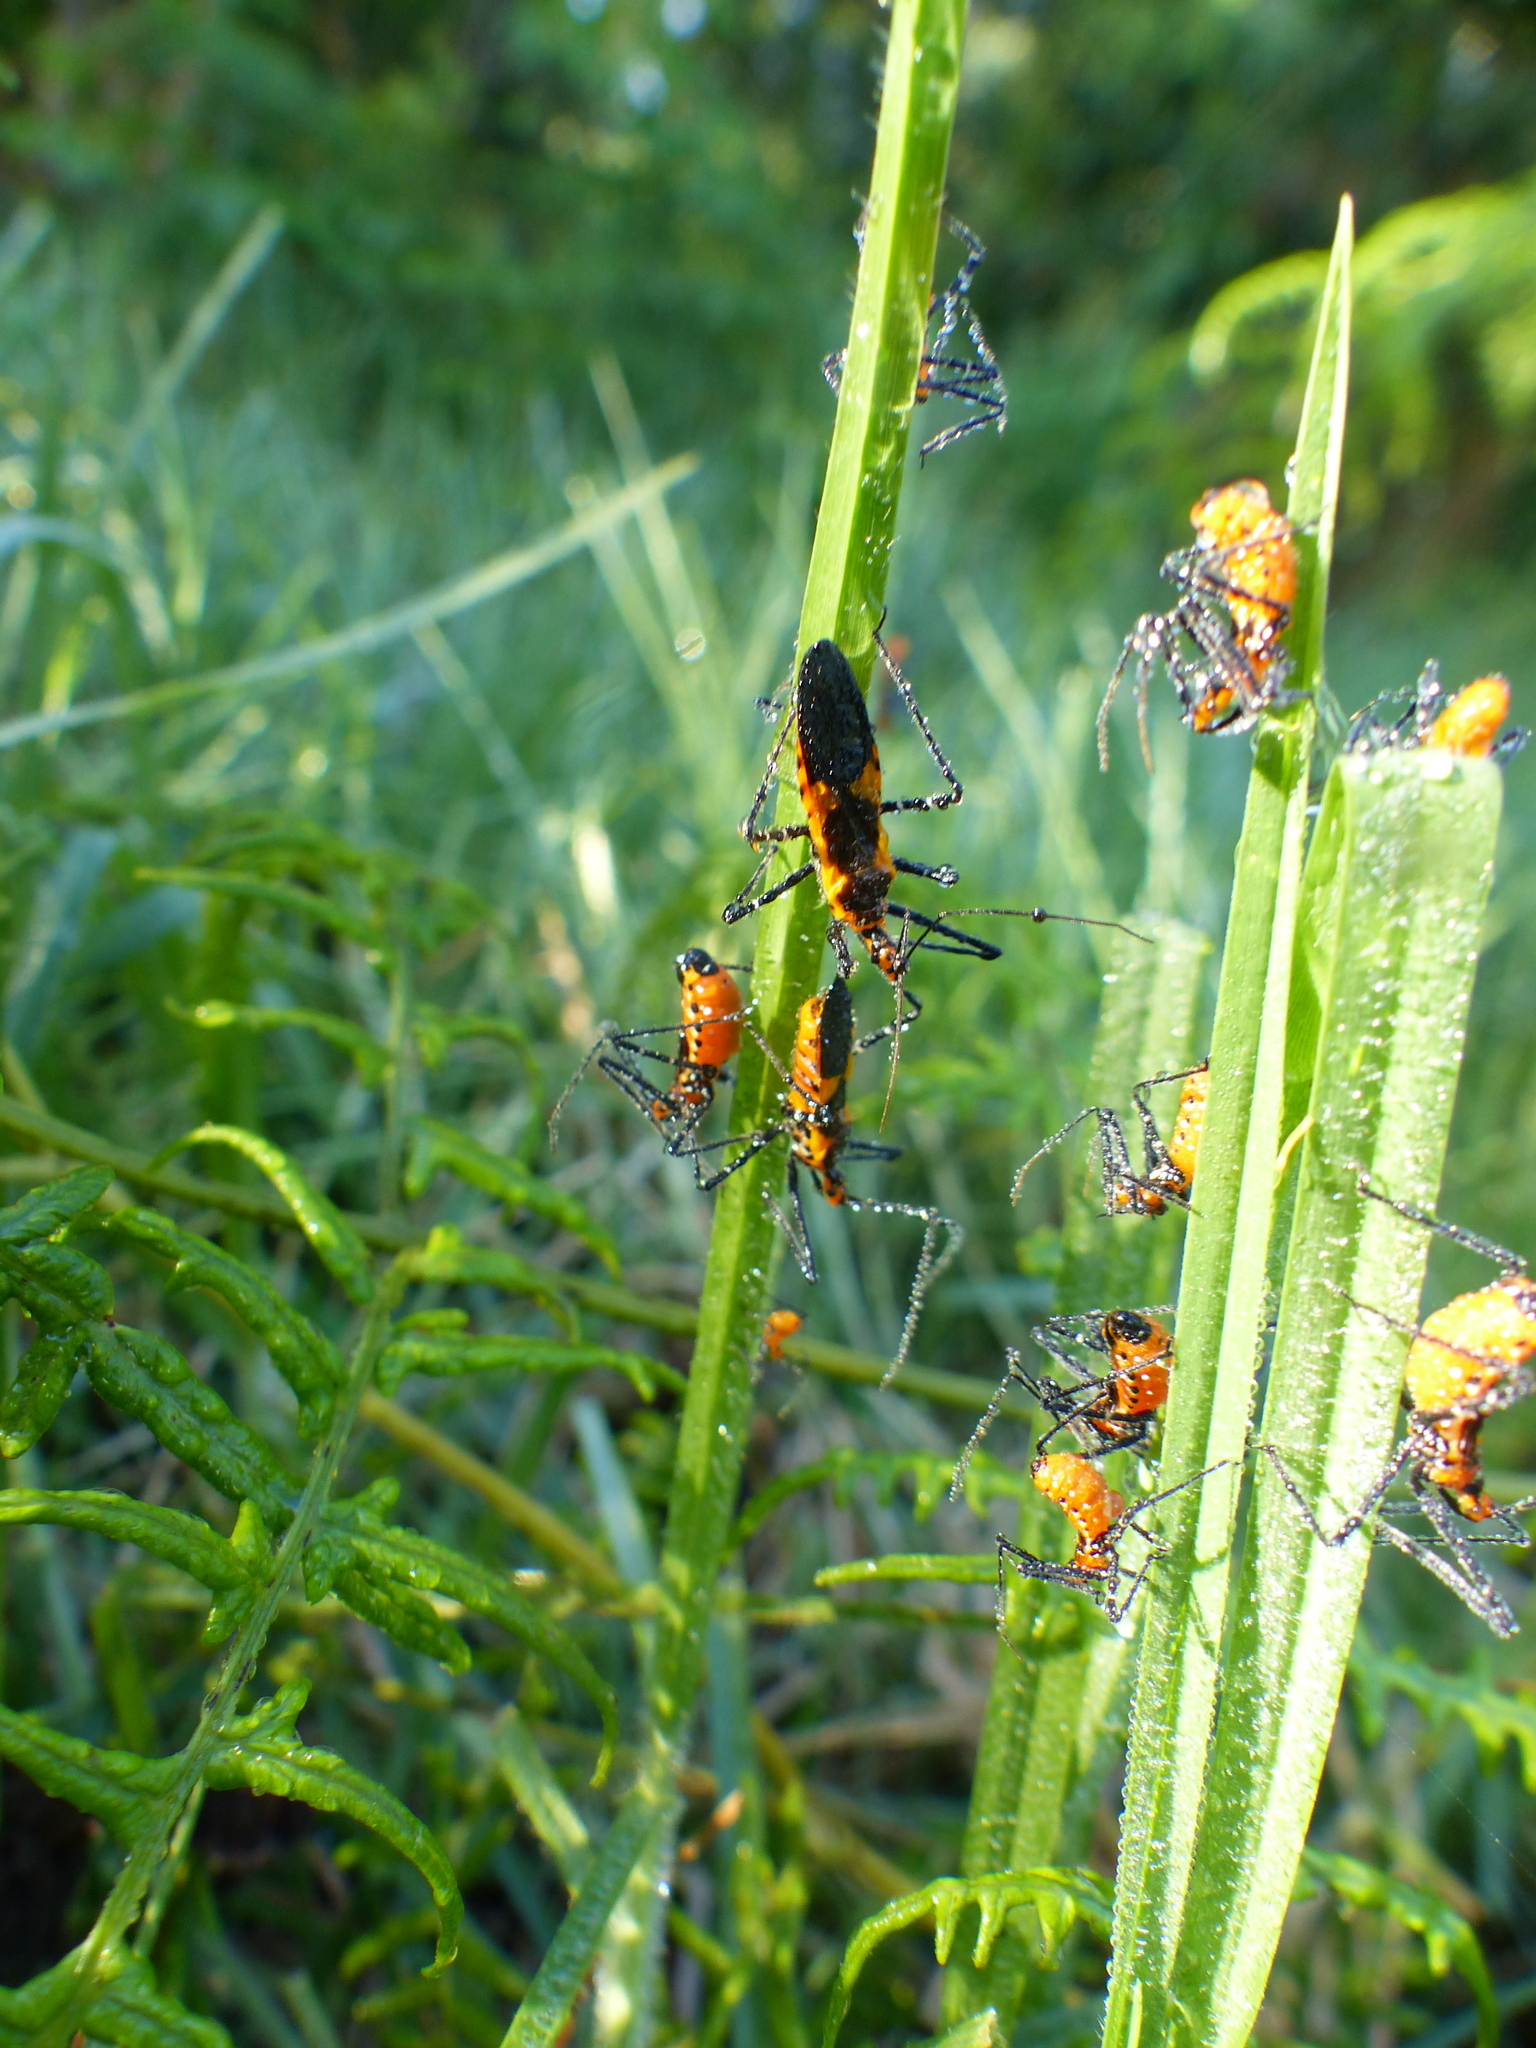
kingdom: Animalia
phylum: Arthropoda
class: Insecta
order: Hemiptera
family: Reduviidae
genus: Zelus
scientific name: Zelus longipes
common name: Milkweed assassin bug
